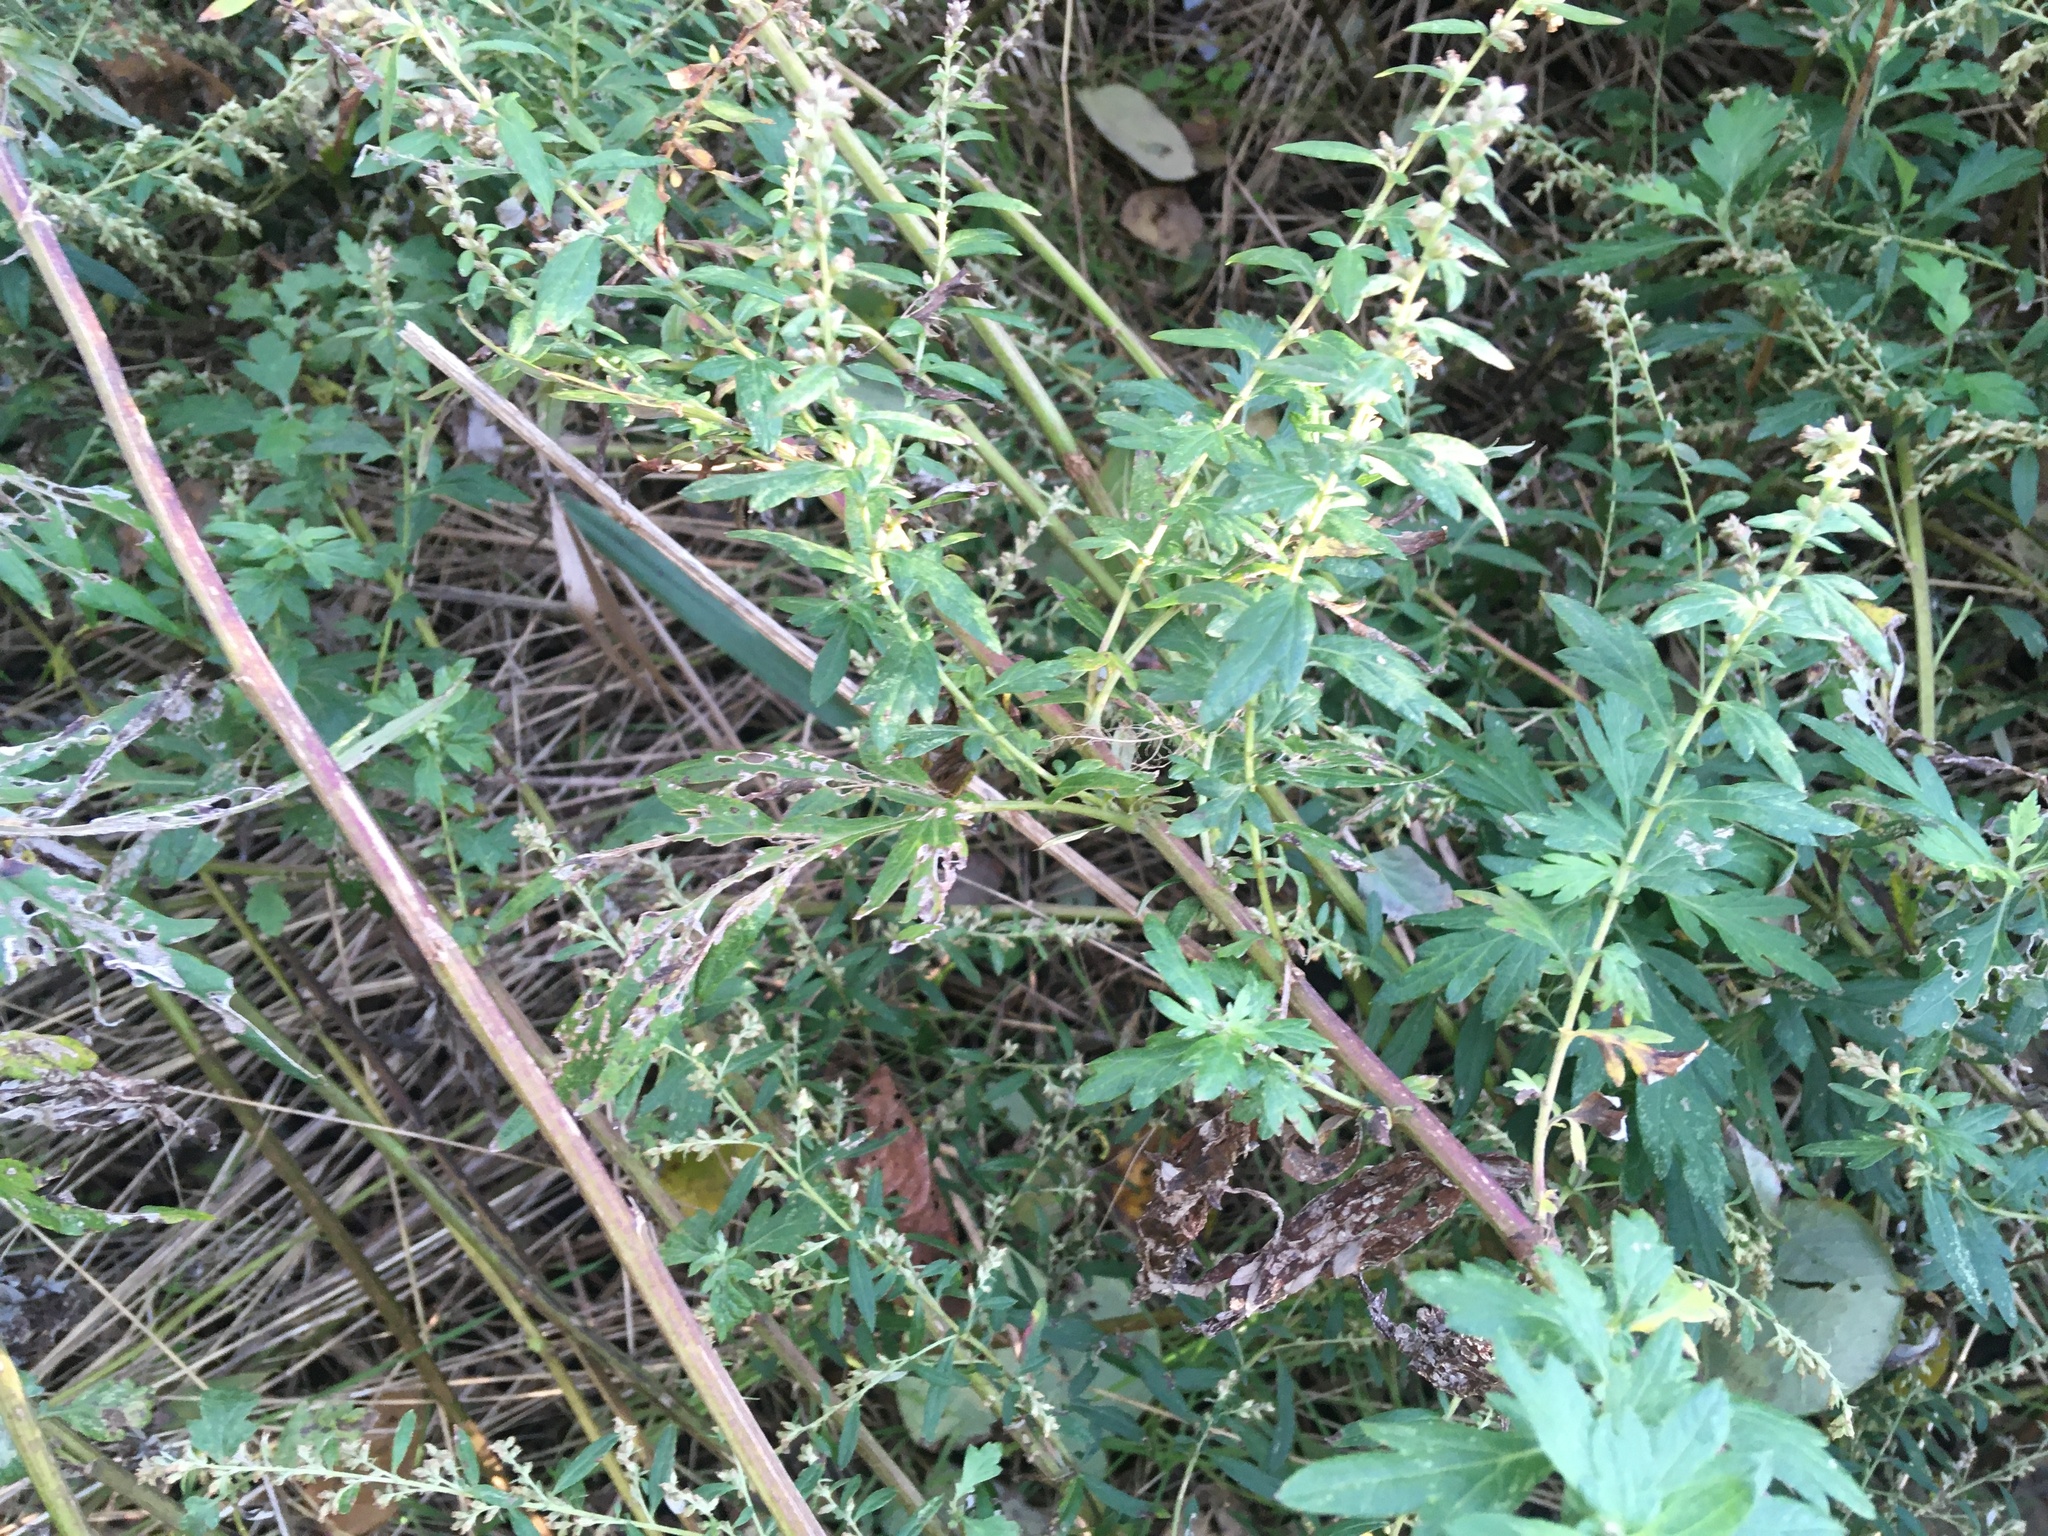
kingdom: Plantae
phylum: Tracheophyta
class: Magnoliopsida
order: Asterales
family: Asteraceae
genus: Artemisia
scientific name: Artemisia vulgaris
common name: Mugwort
